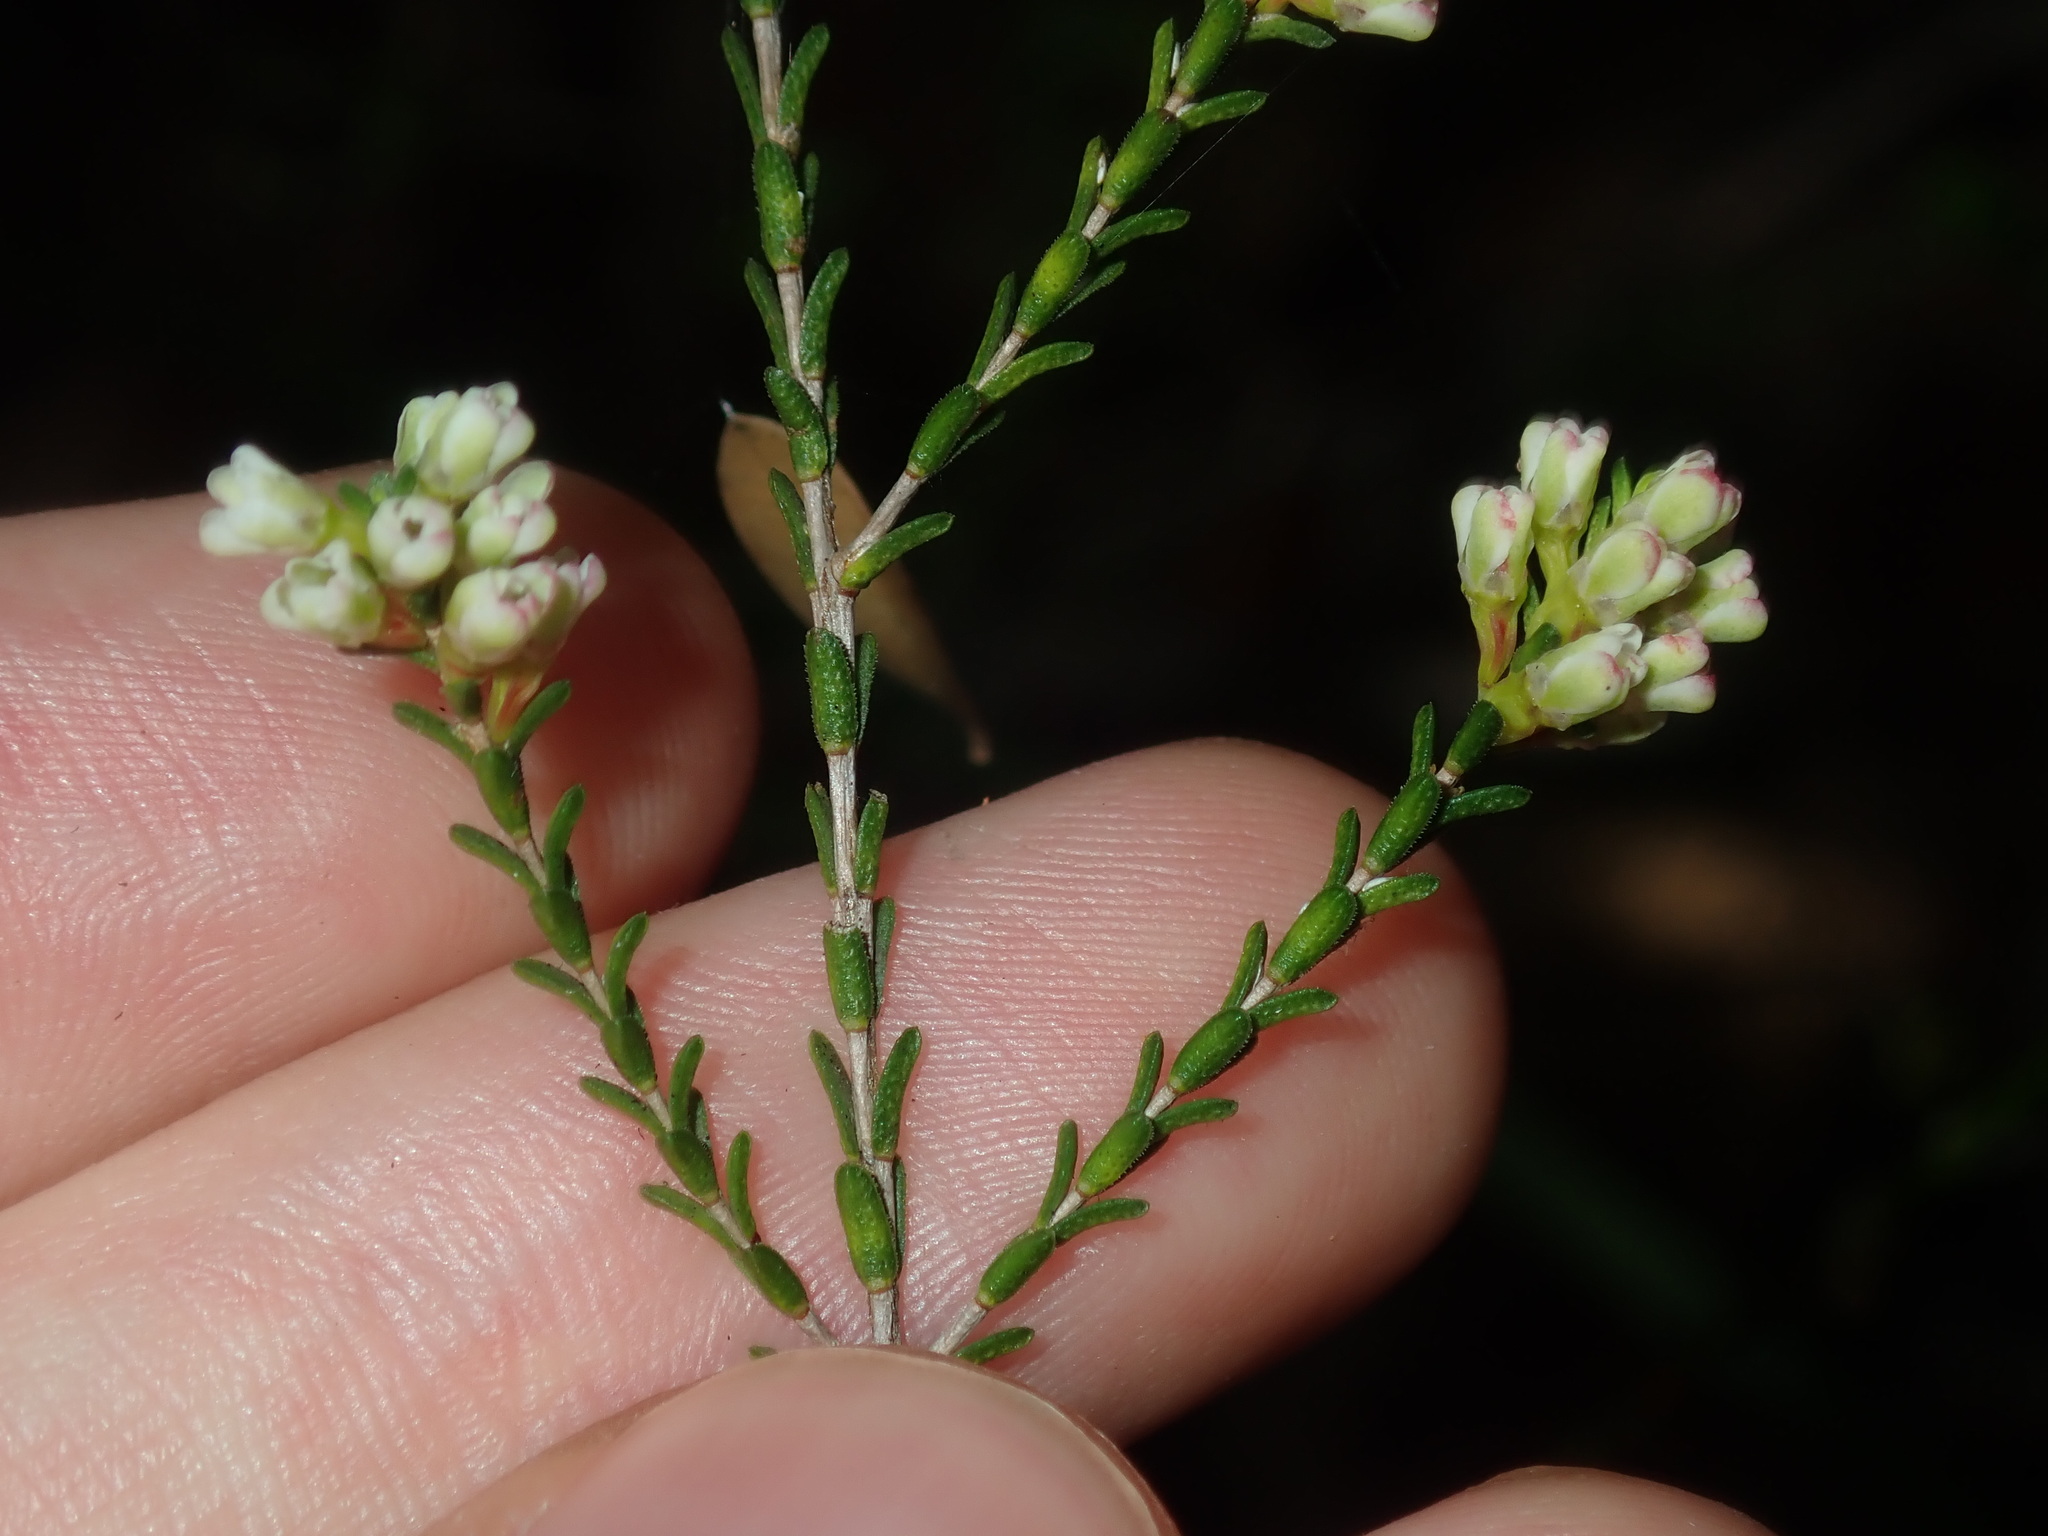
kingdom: Plantae
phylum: Tracheophyta
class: Magnoliopsida
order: Myrtales
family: Myrtaceae
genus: Micromyrtus
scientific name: Micromyrtus ciliata
